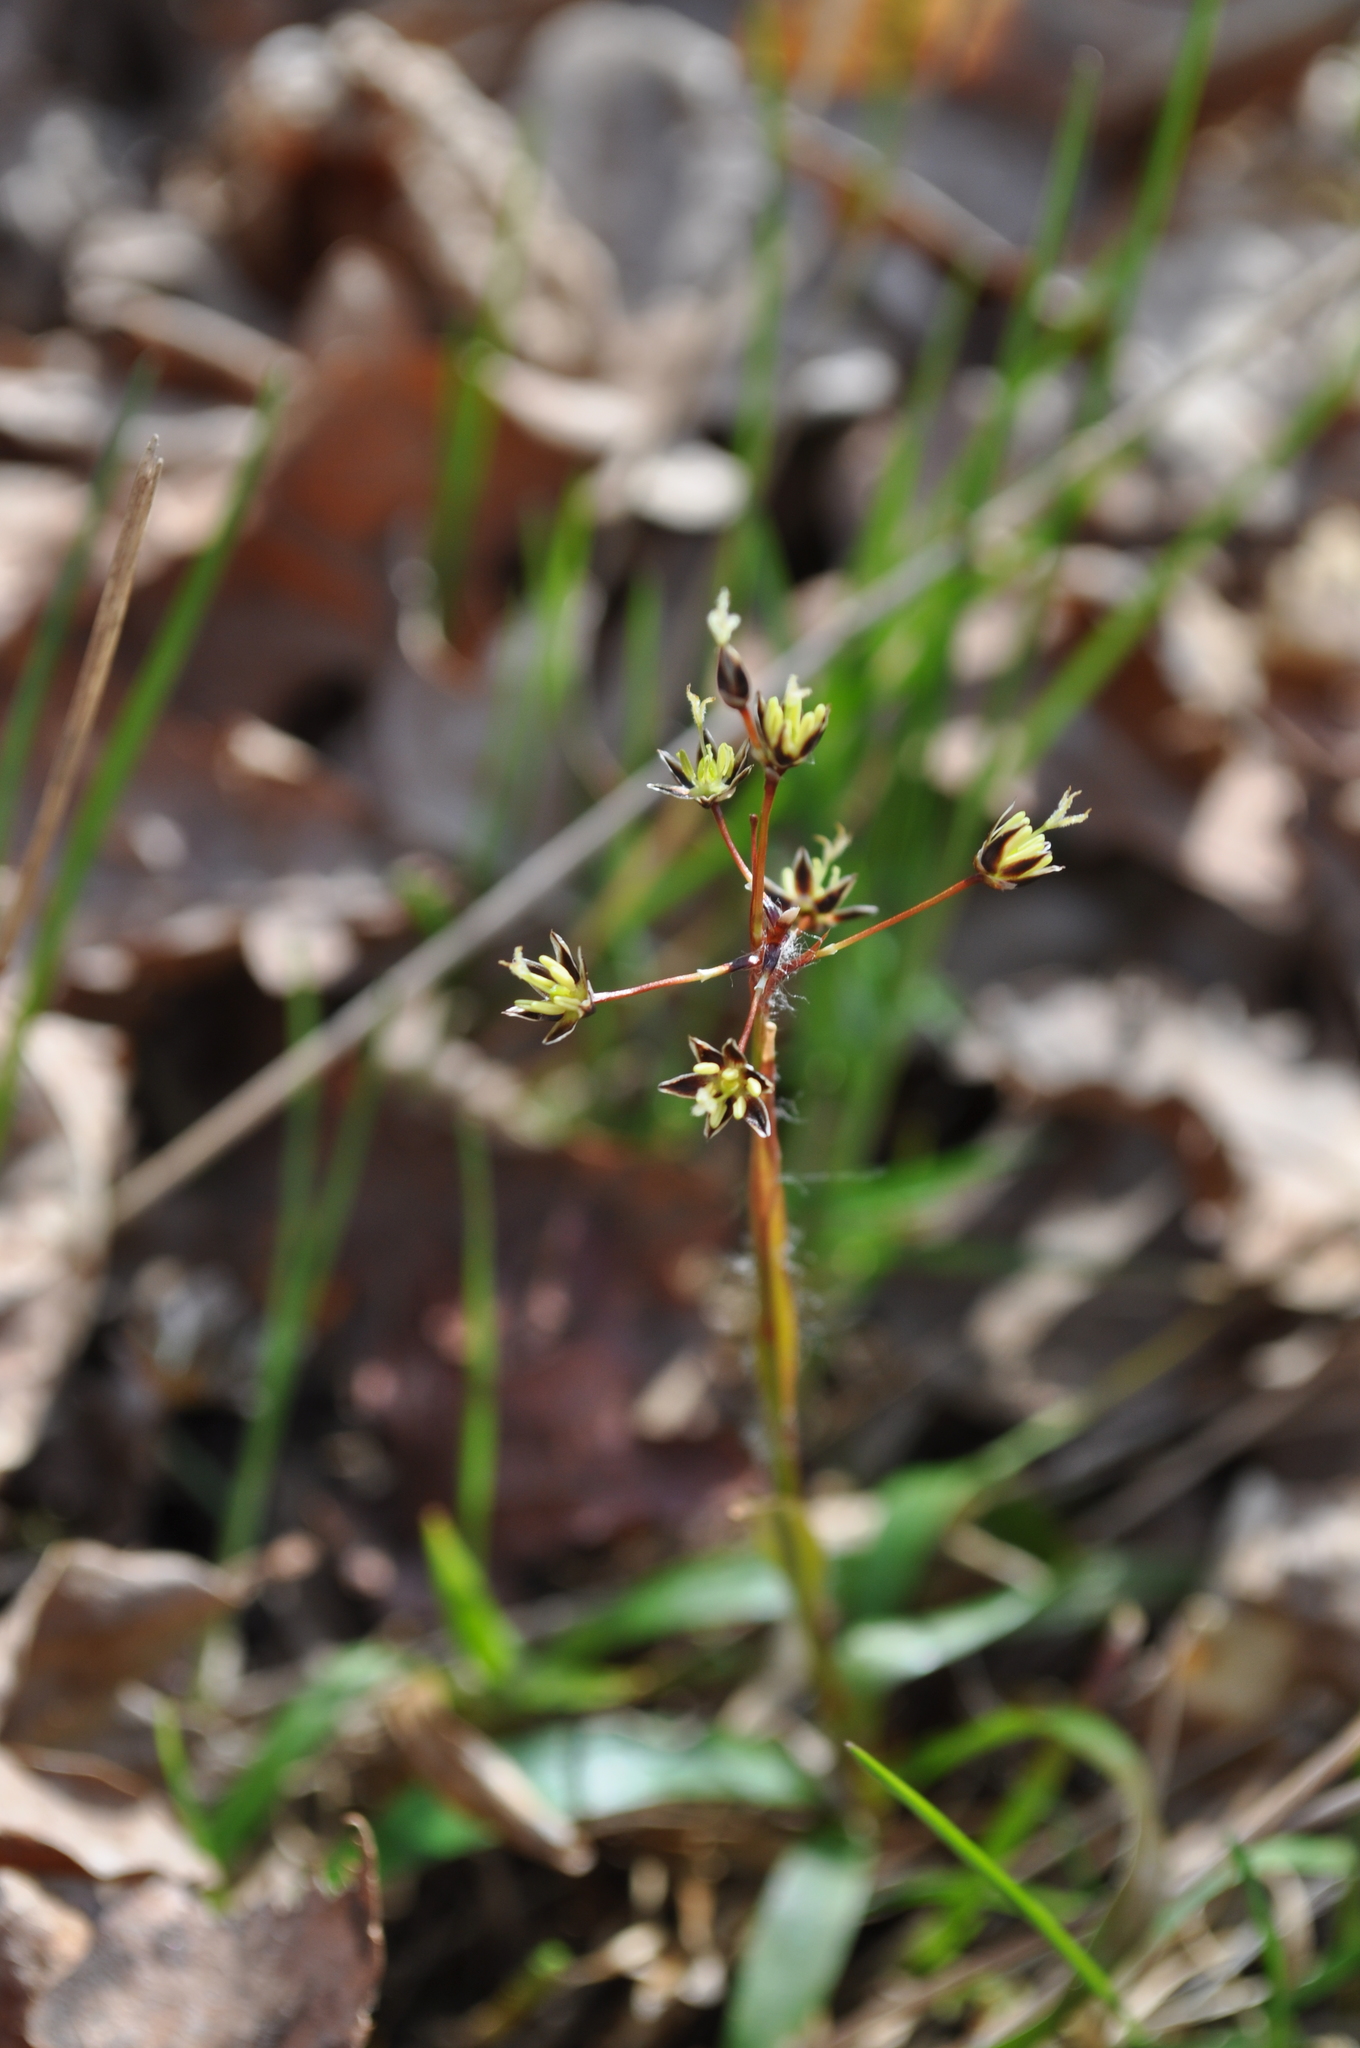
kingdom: Plantae
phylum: Tracheophyta
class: Liliopsida
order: Poales
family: Juncaceae
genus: Luzula
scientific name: Luzula pilosa
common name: Hairy wood-rush
